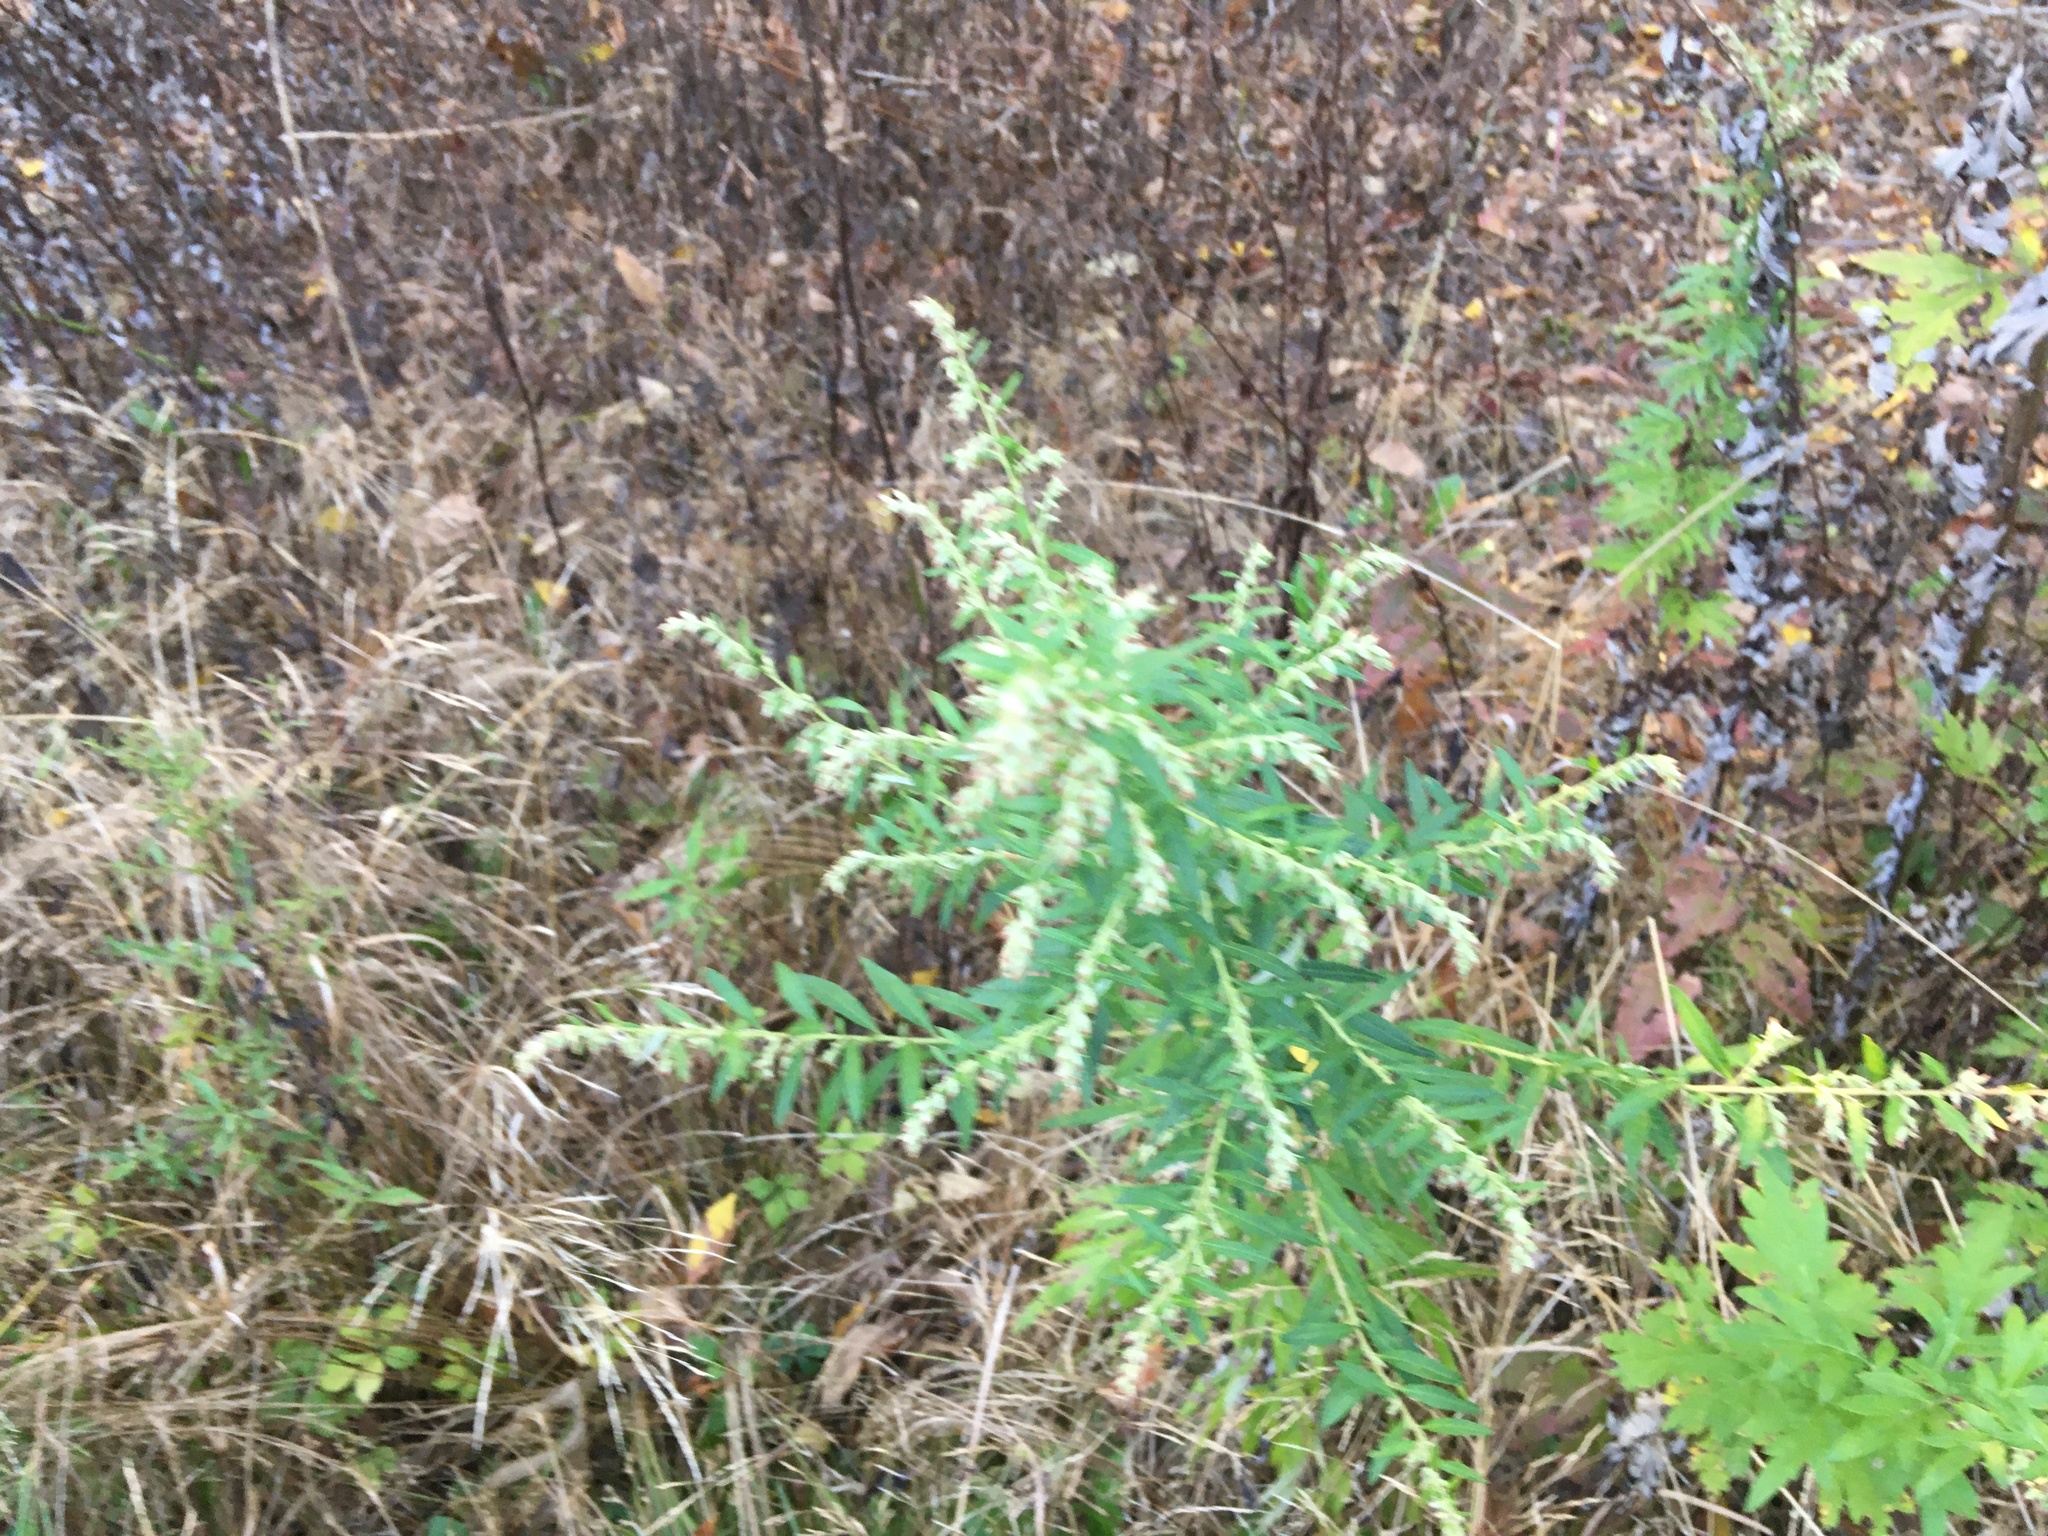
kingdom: Plantae
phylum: Tracheophyta
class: Magnoliopsida
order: Asterales
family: Asteraceae
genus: Artemisia
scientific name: Artemisia vulgaris
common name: Mugwort
